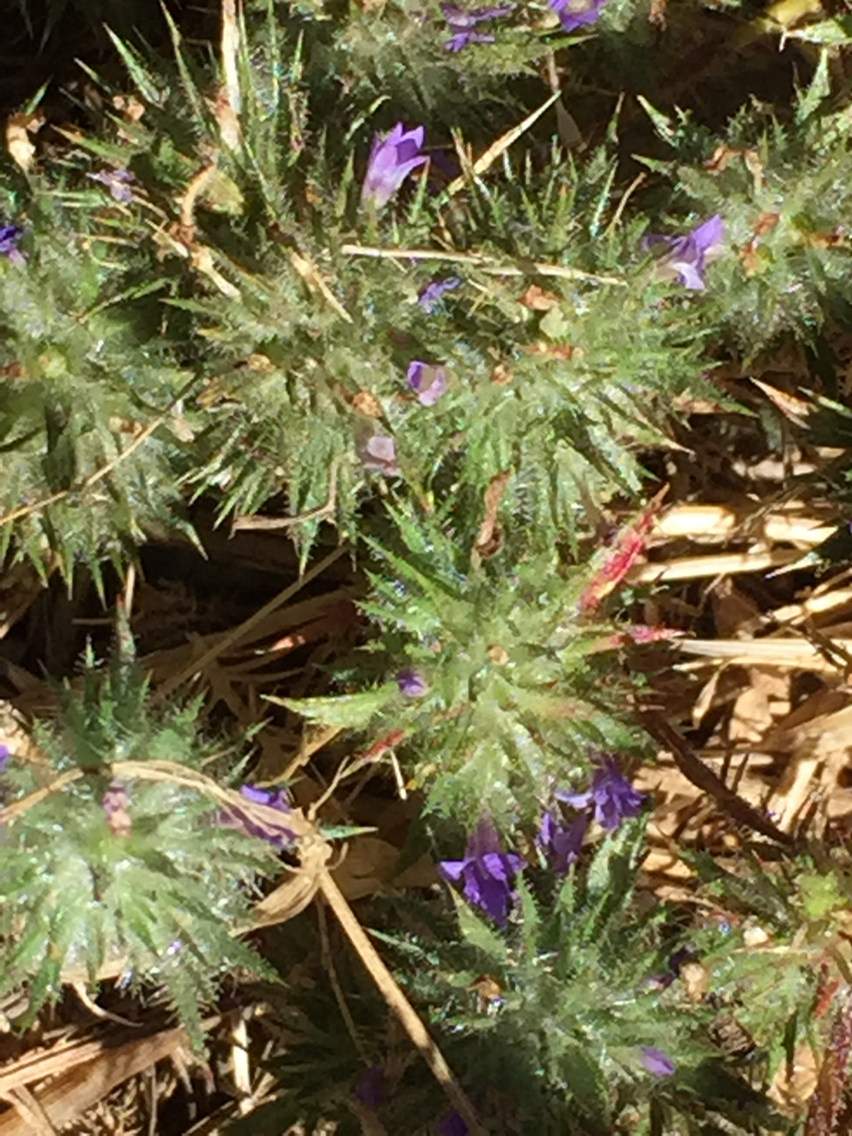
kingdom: Plantae
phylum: Tracheophyta
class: Magnoliopsida
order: Ericales
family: Polemoniaceae
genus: Navarretia
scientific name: Navarretia squarrosa
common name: Skunkweed
